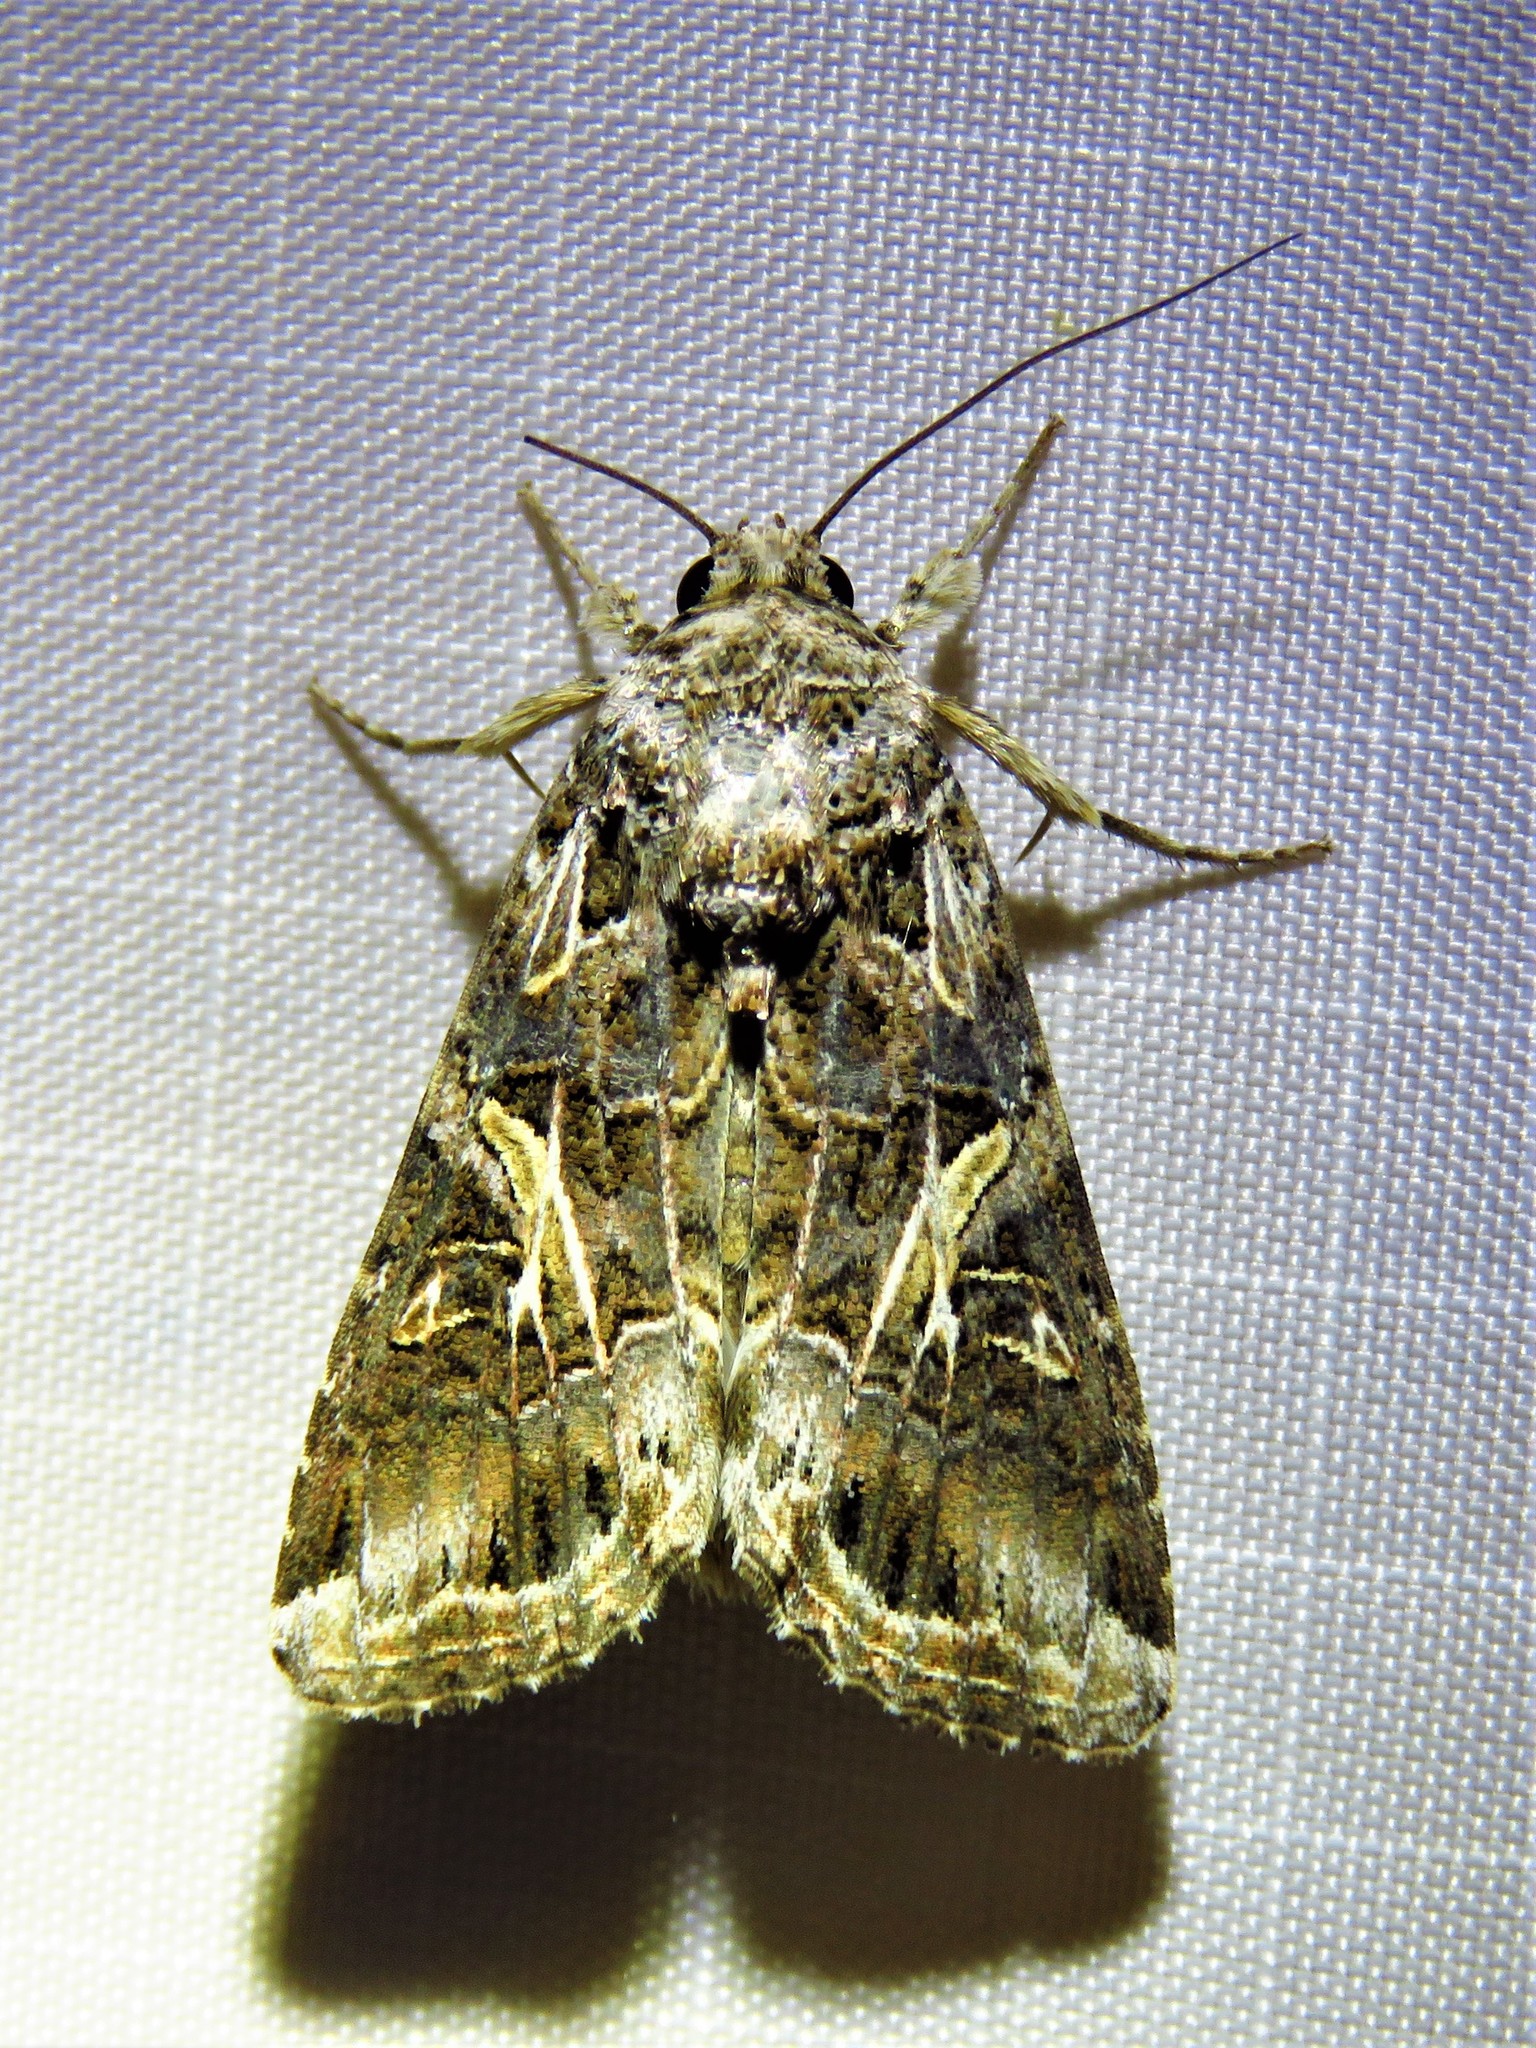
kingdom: Animalia
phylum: Arthropoda
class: Insecta
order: Lepidoptera
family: Noctuidae
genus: Spodoptera
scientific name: Spodoptera ornithogalli
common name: Yellow-striped armyworm
